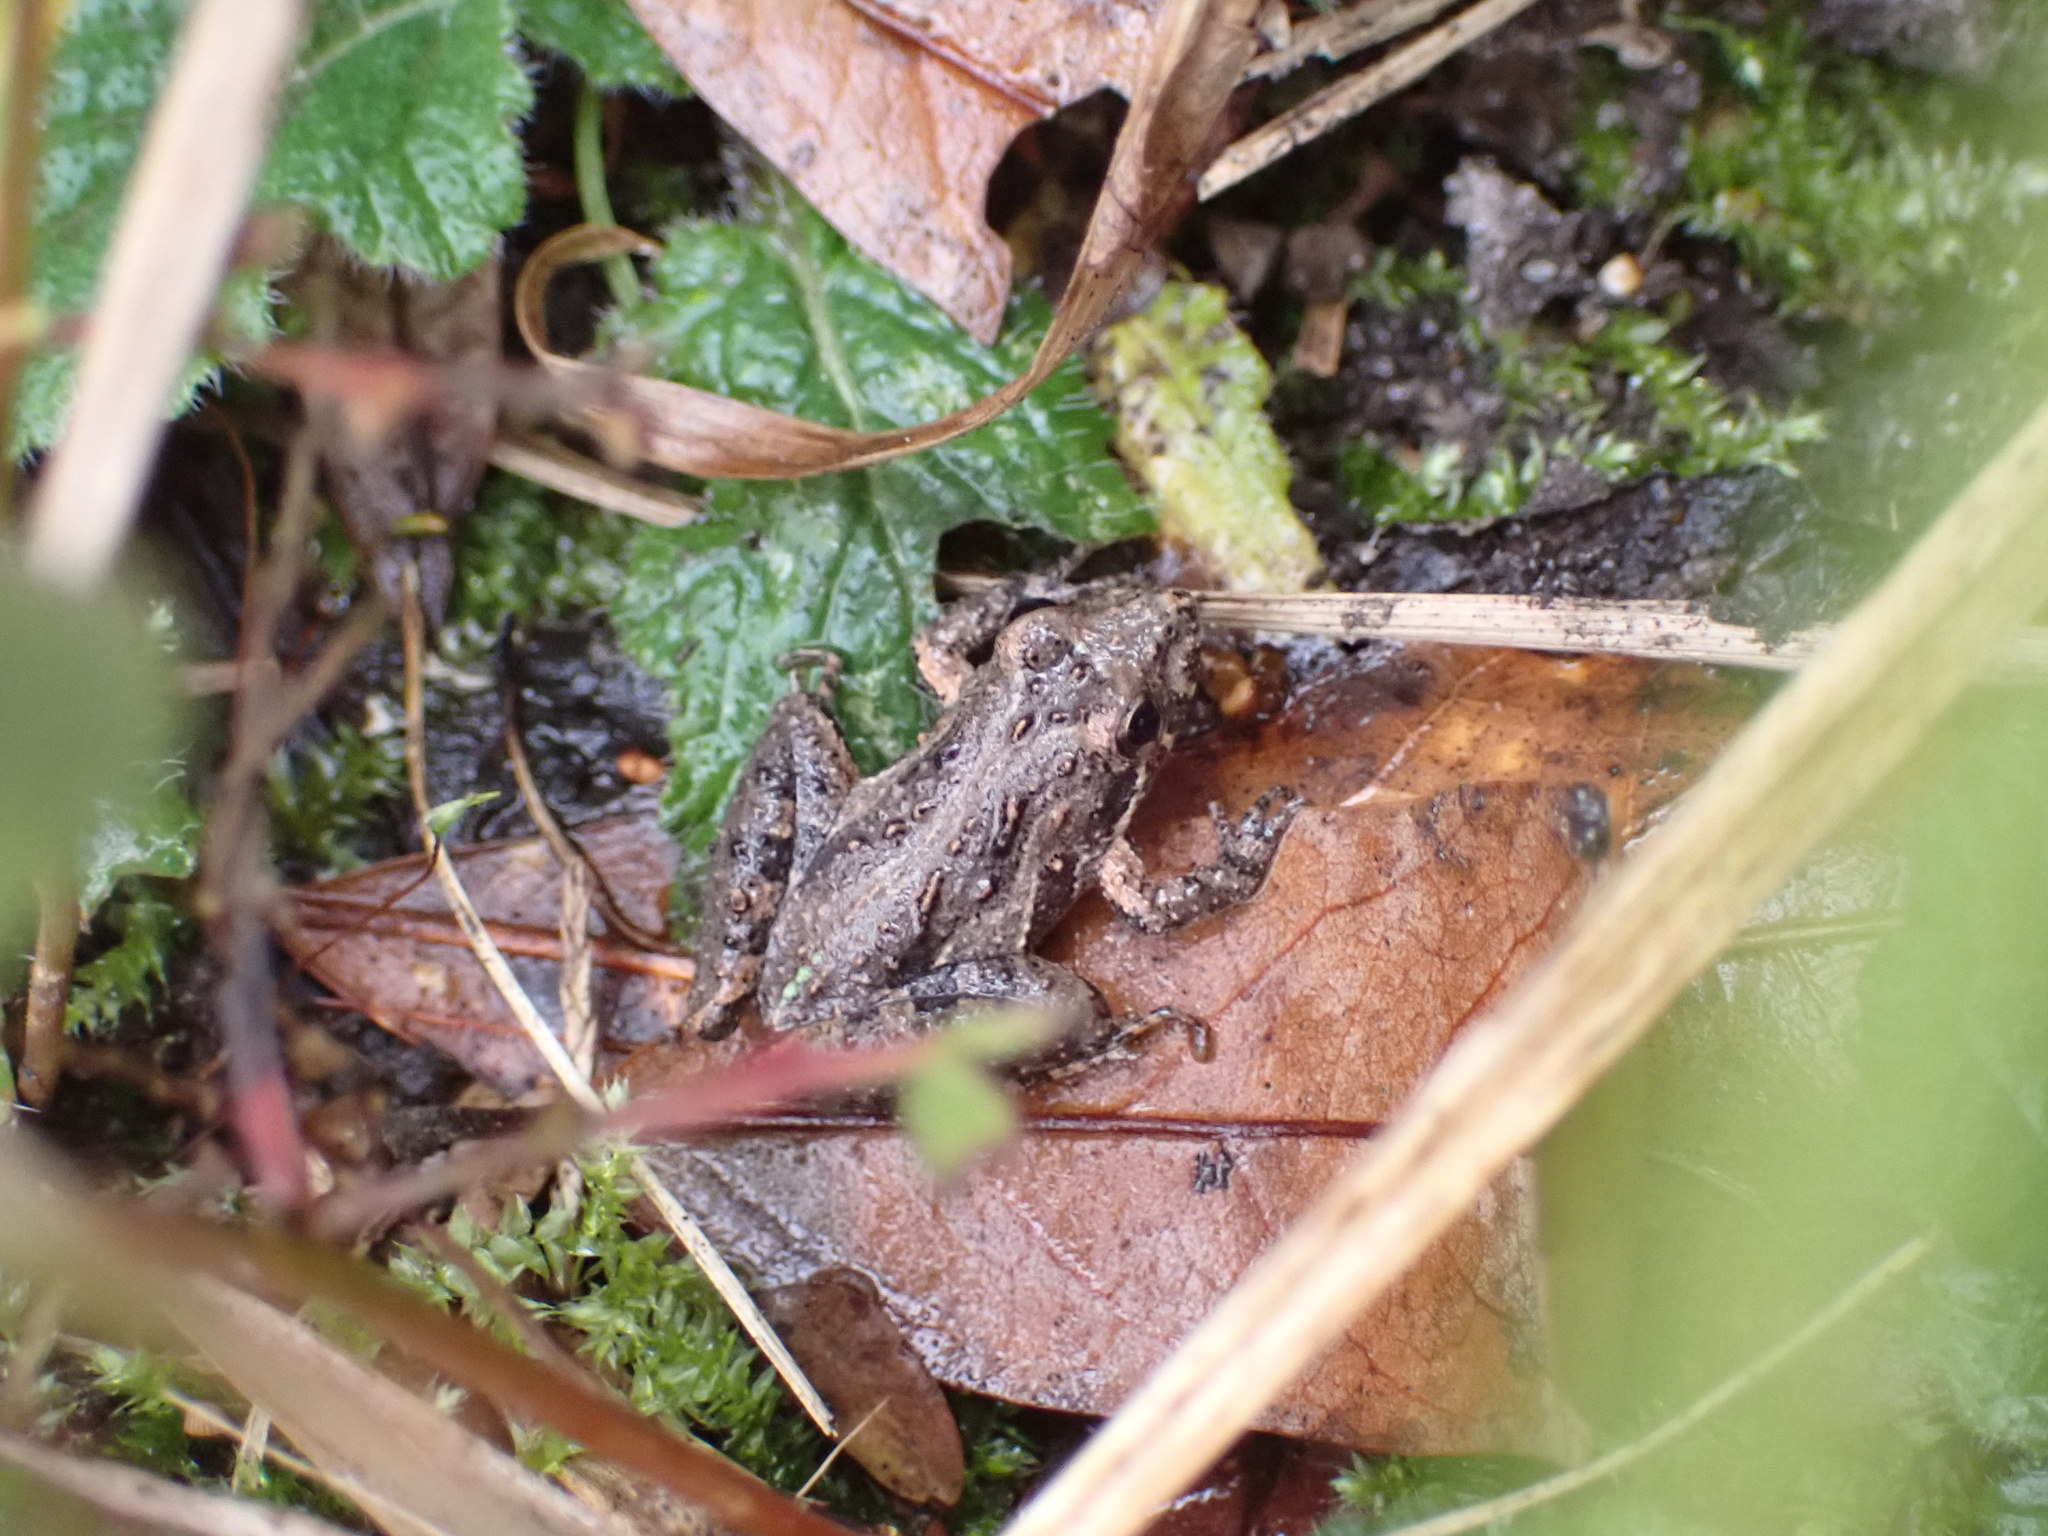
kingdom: Animalia
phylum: Chordata
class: Amphibia
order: Anura
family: Hylidae
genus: Acris
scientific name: Acris gryllus
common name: Southern cricket frog
